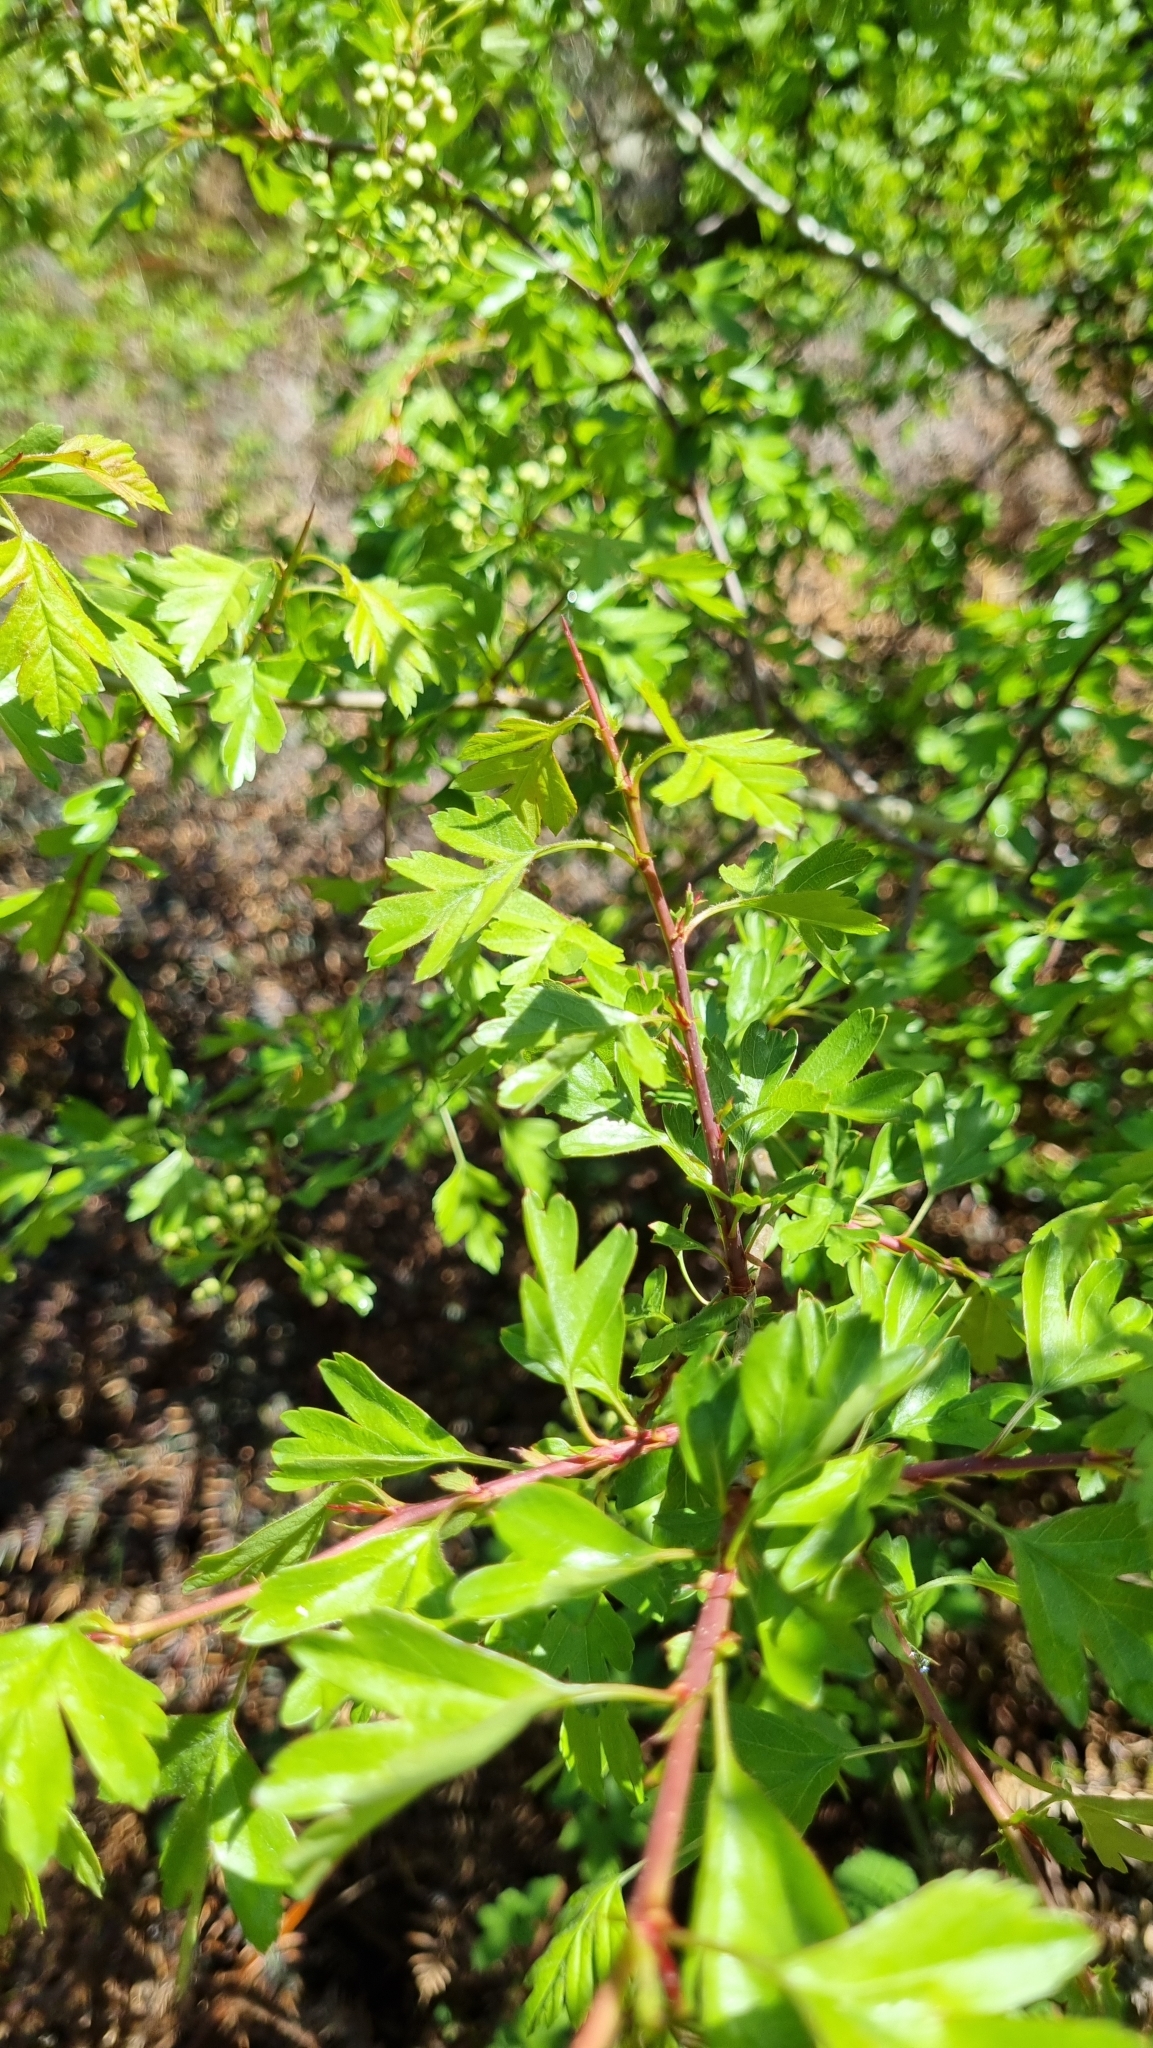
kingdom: Plantae
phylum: Tracheophyta
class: Magnoliopsida
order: Rosales
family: Rosaceae
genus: Crataegus
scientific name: Crataegus monogyna
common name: Hawthorn
